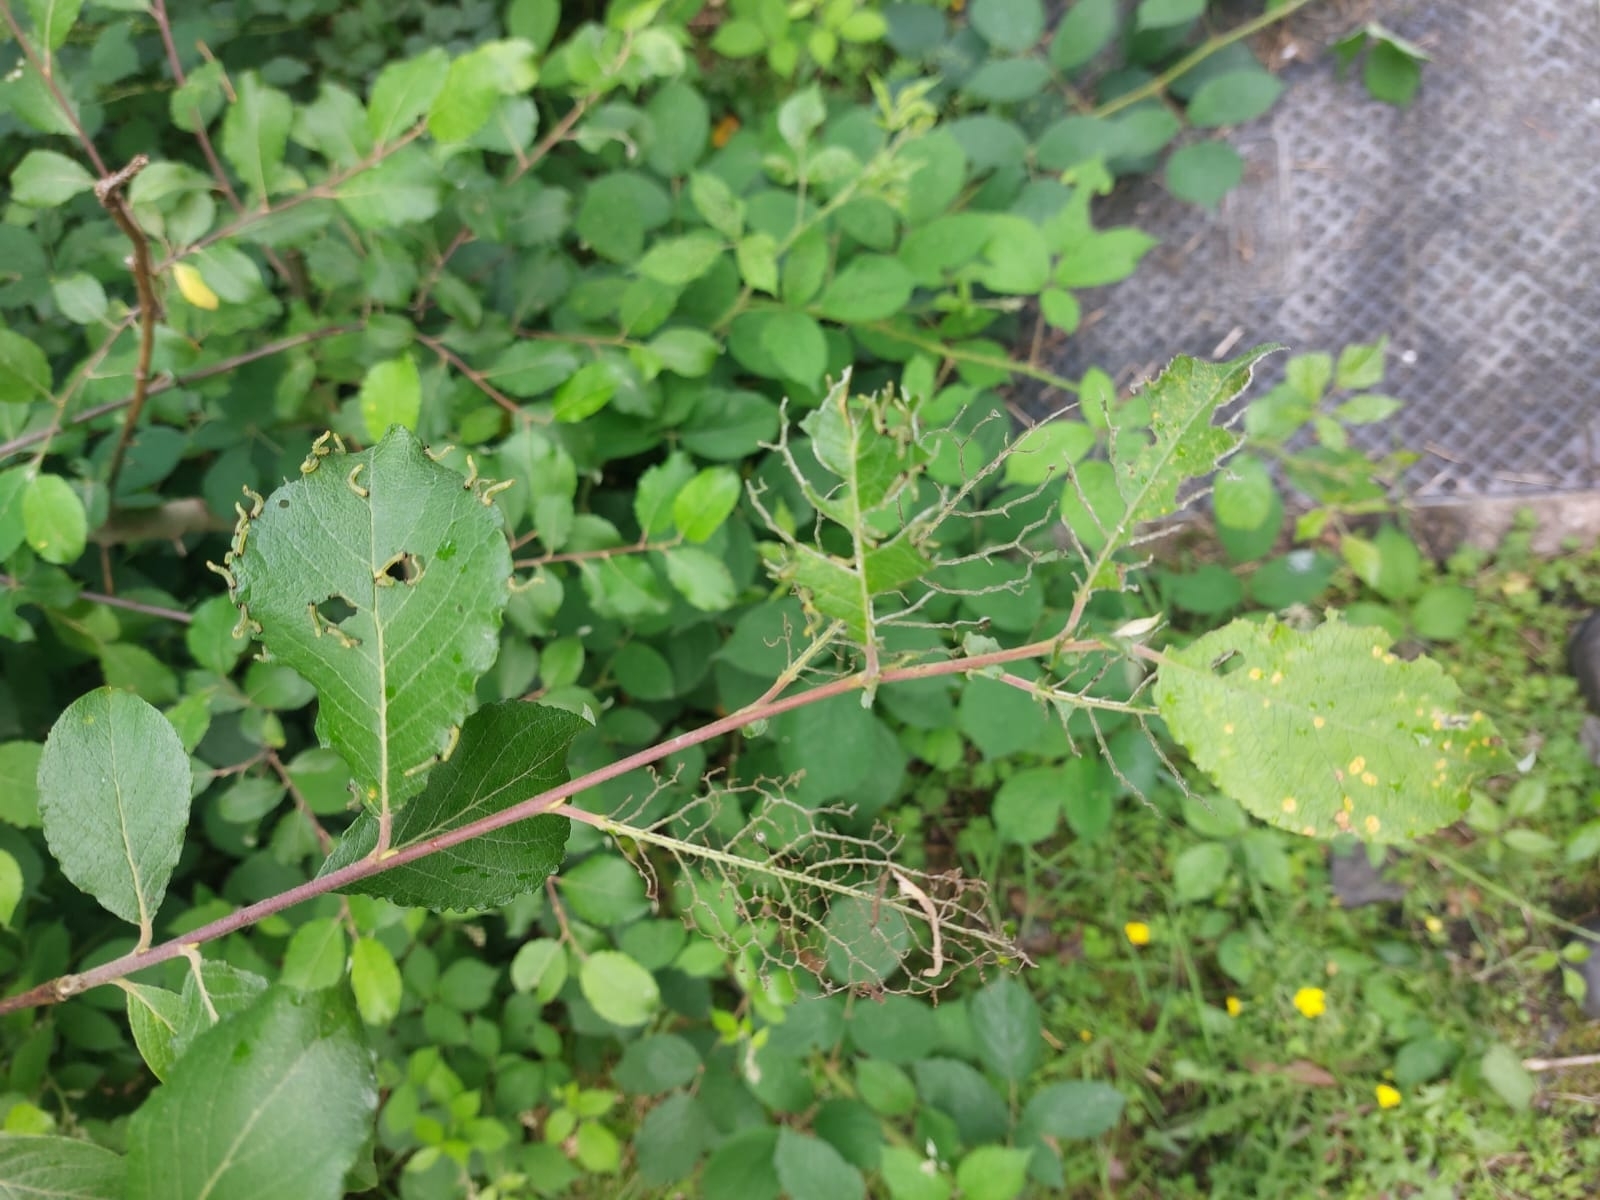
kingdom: Animalia
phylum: Arthropoda
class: Insecta
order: Hymenoptera
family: Tenthredinidae
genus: Nematus
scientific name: Nematus pavidus
